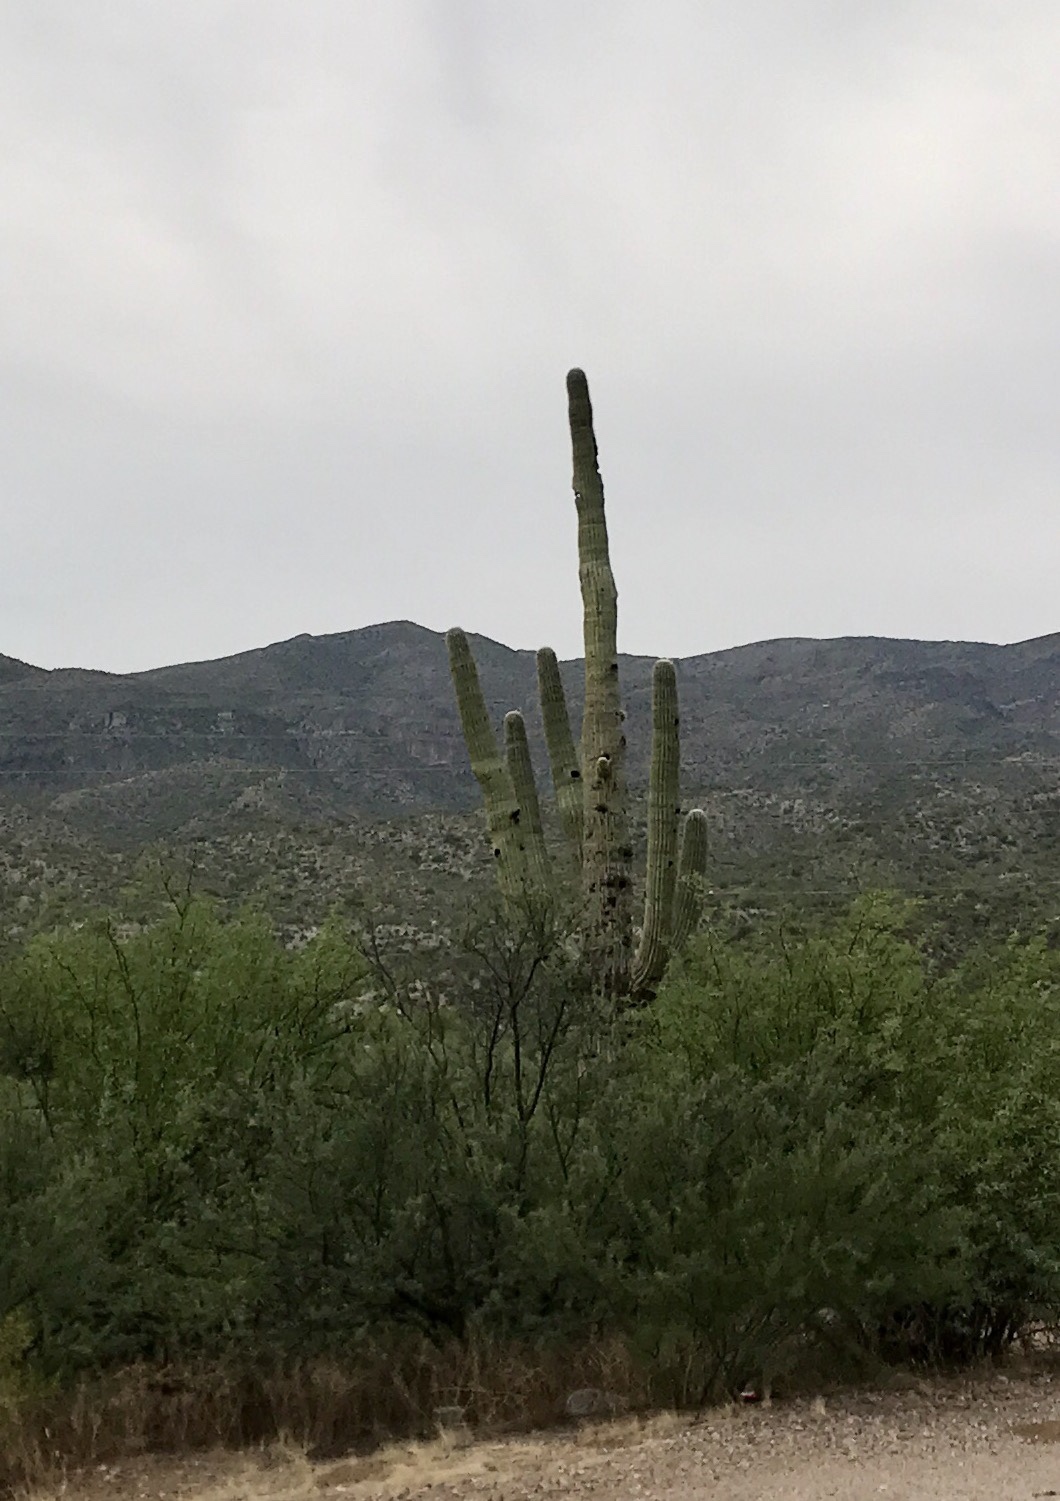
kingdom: Plantae
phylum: Tracheophyta
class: Magnoliopsida
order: Caryophyllales
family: Cactaceae
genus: Carnegiea
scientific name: Carnegiea gigantea
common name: Saguaro
